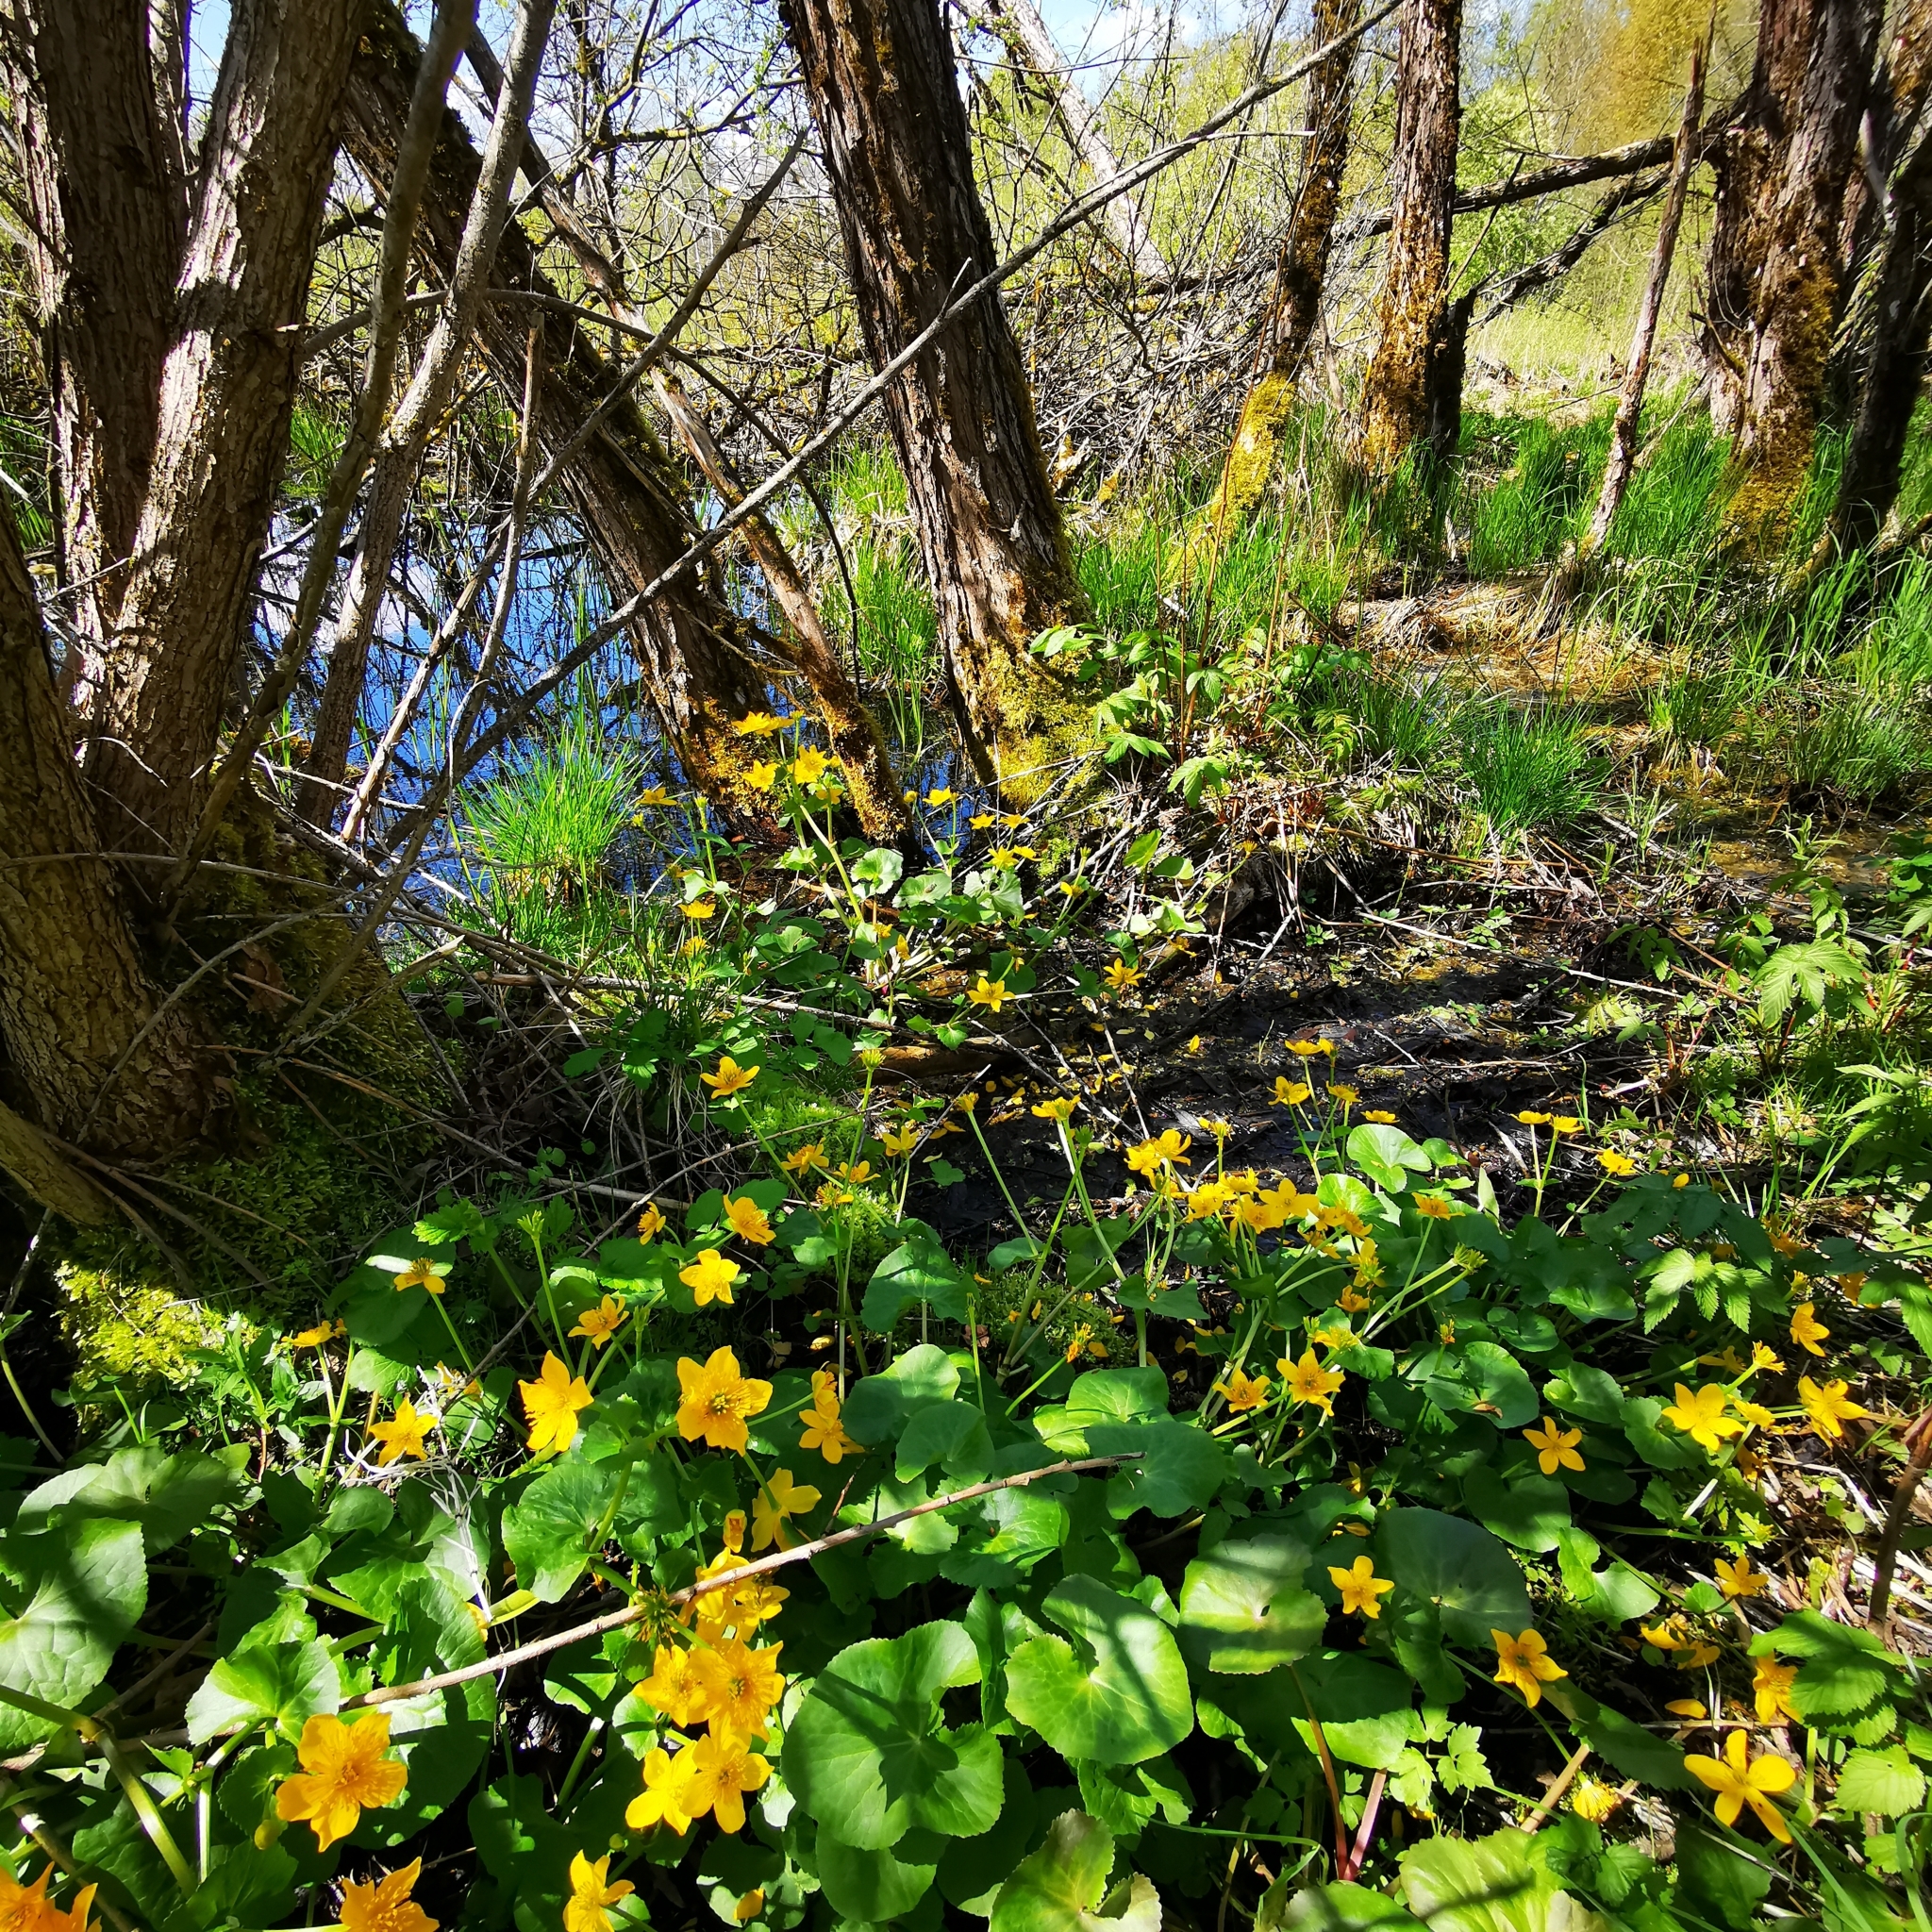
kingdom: Plantae
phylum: Tracheophyta
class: Magnoliopsida
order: Ranunculales
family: Ranunculaceae
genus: Caltha
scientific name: Caltha palustris
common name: Marsh marigold
